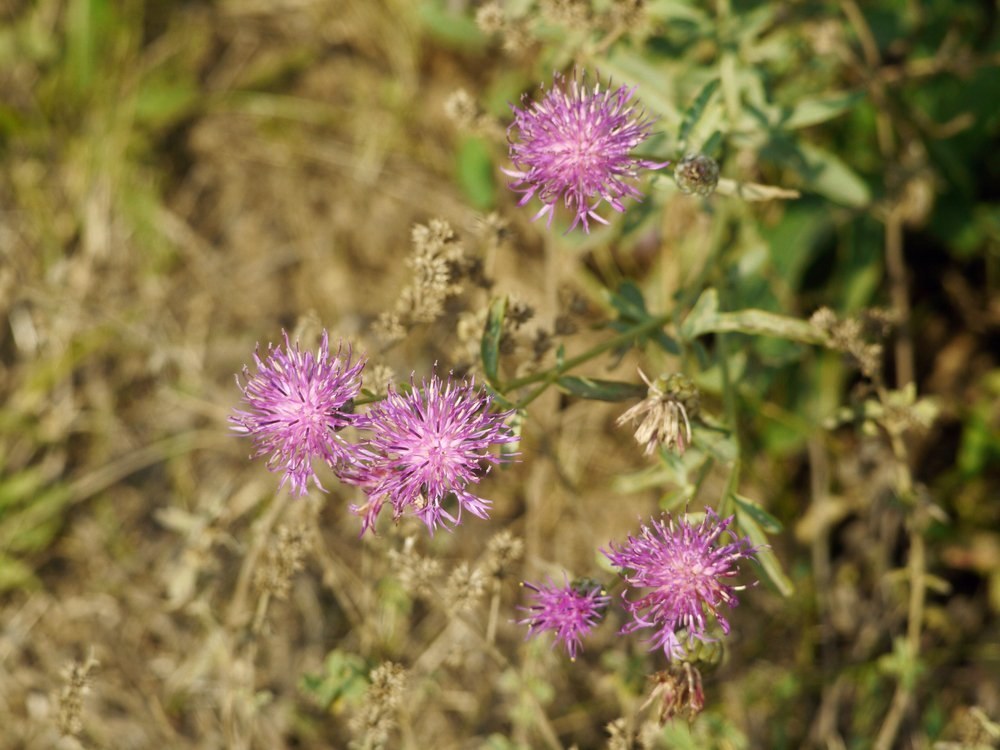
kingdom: Plantae
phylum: Tracheophyta
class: Magnoliopsida
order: Asterales
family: Asteraceae
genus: Centaurea
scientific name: Centaurea adpressa
